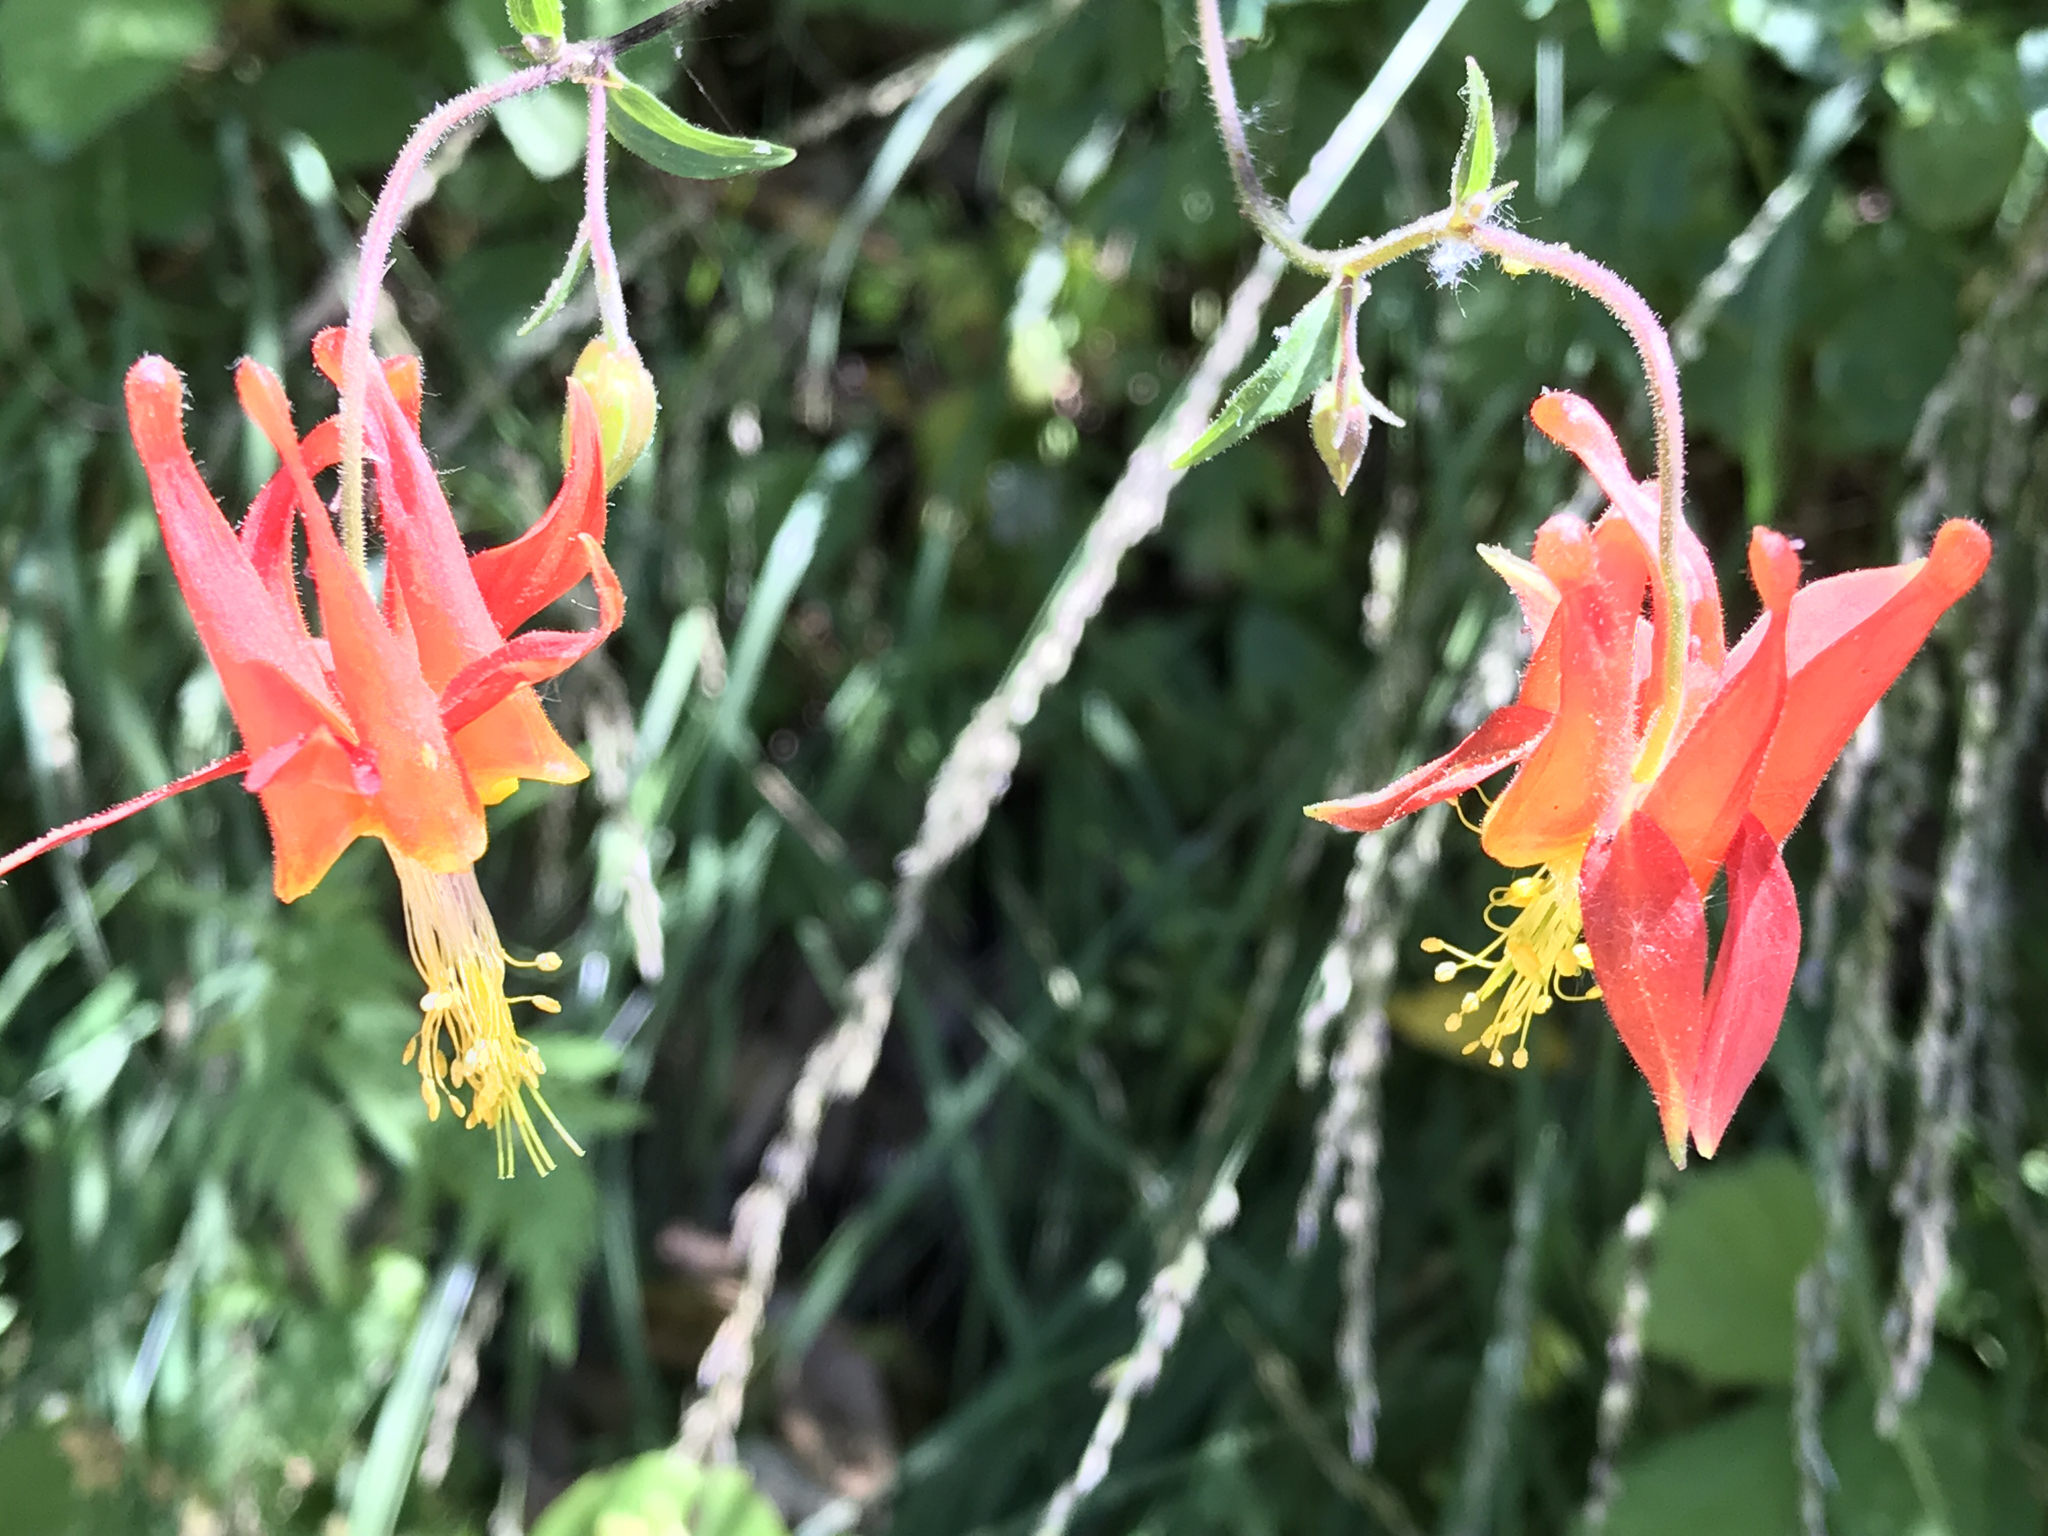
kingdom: Plantae
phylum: Tracheophyta
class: Magnoliopsida
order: Ranunculales
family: Ranunculaceae
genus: Aquilegia
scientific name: Aquilegia formosa
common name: Sitka columbine
